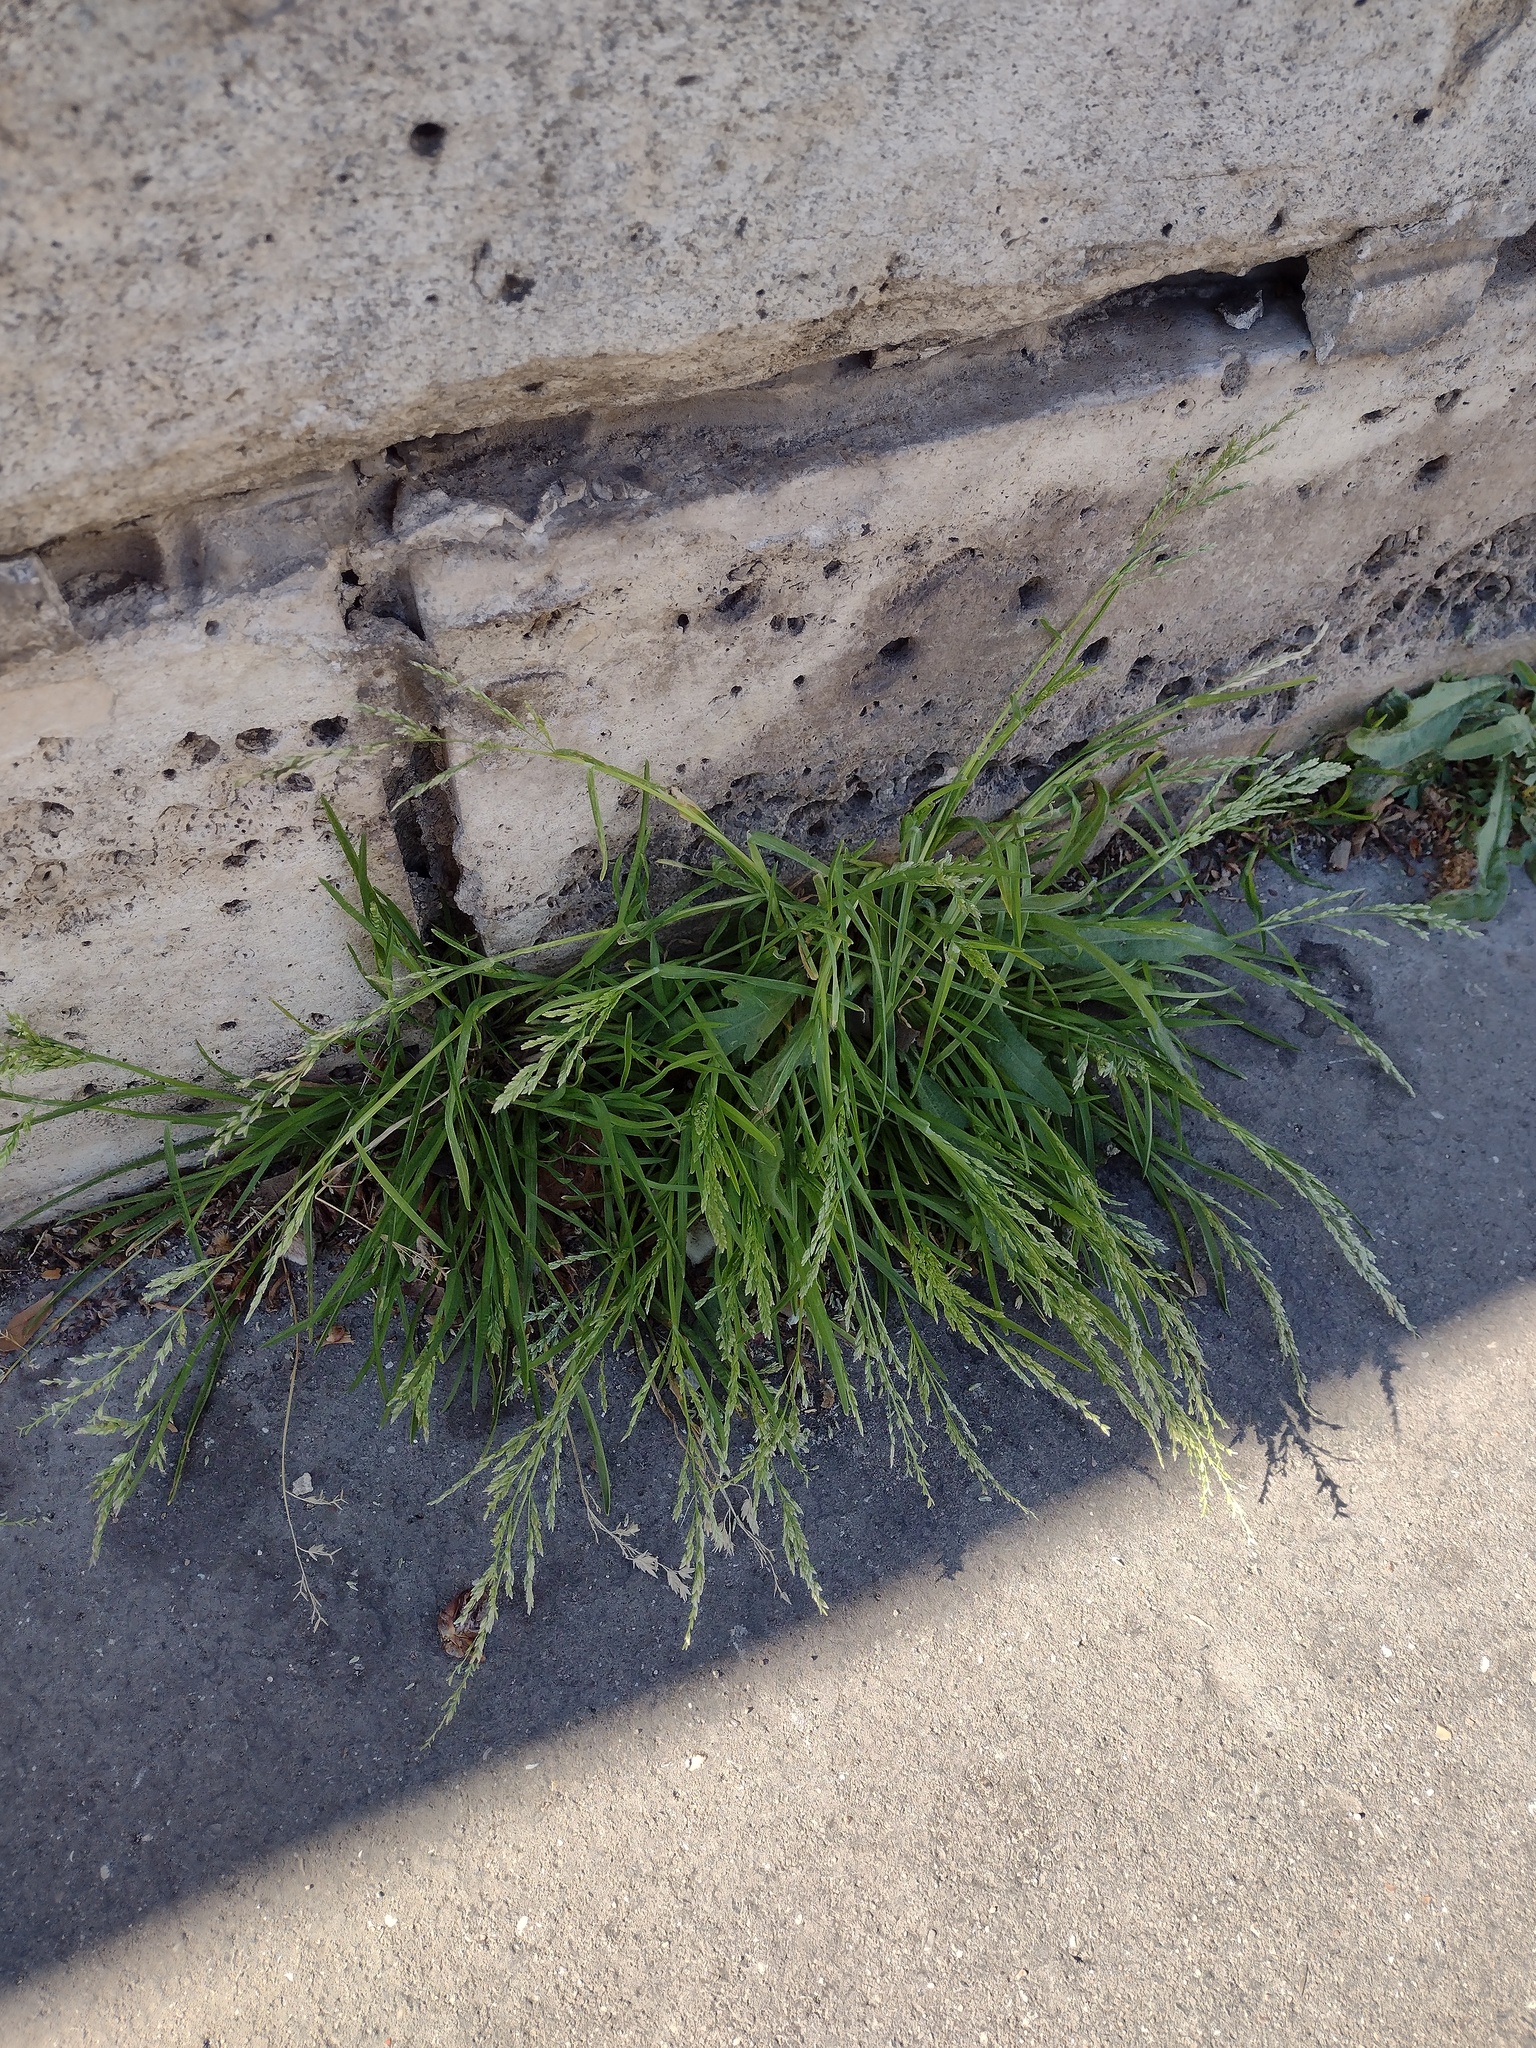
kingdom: Plantae
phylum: Tracheophyta
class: Liliopsida
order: Poales
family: Poaceae
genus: Poa
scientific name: Poa infirma
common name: Weak bluegrass
